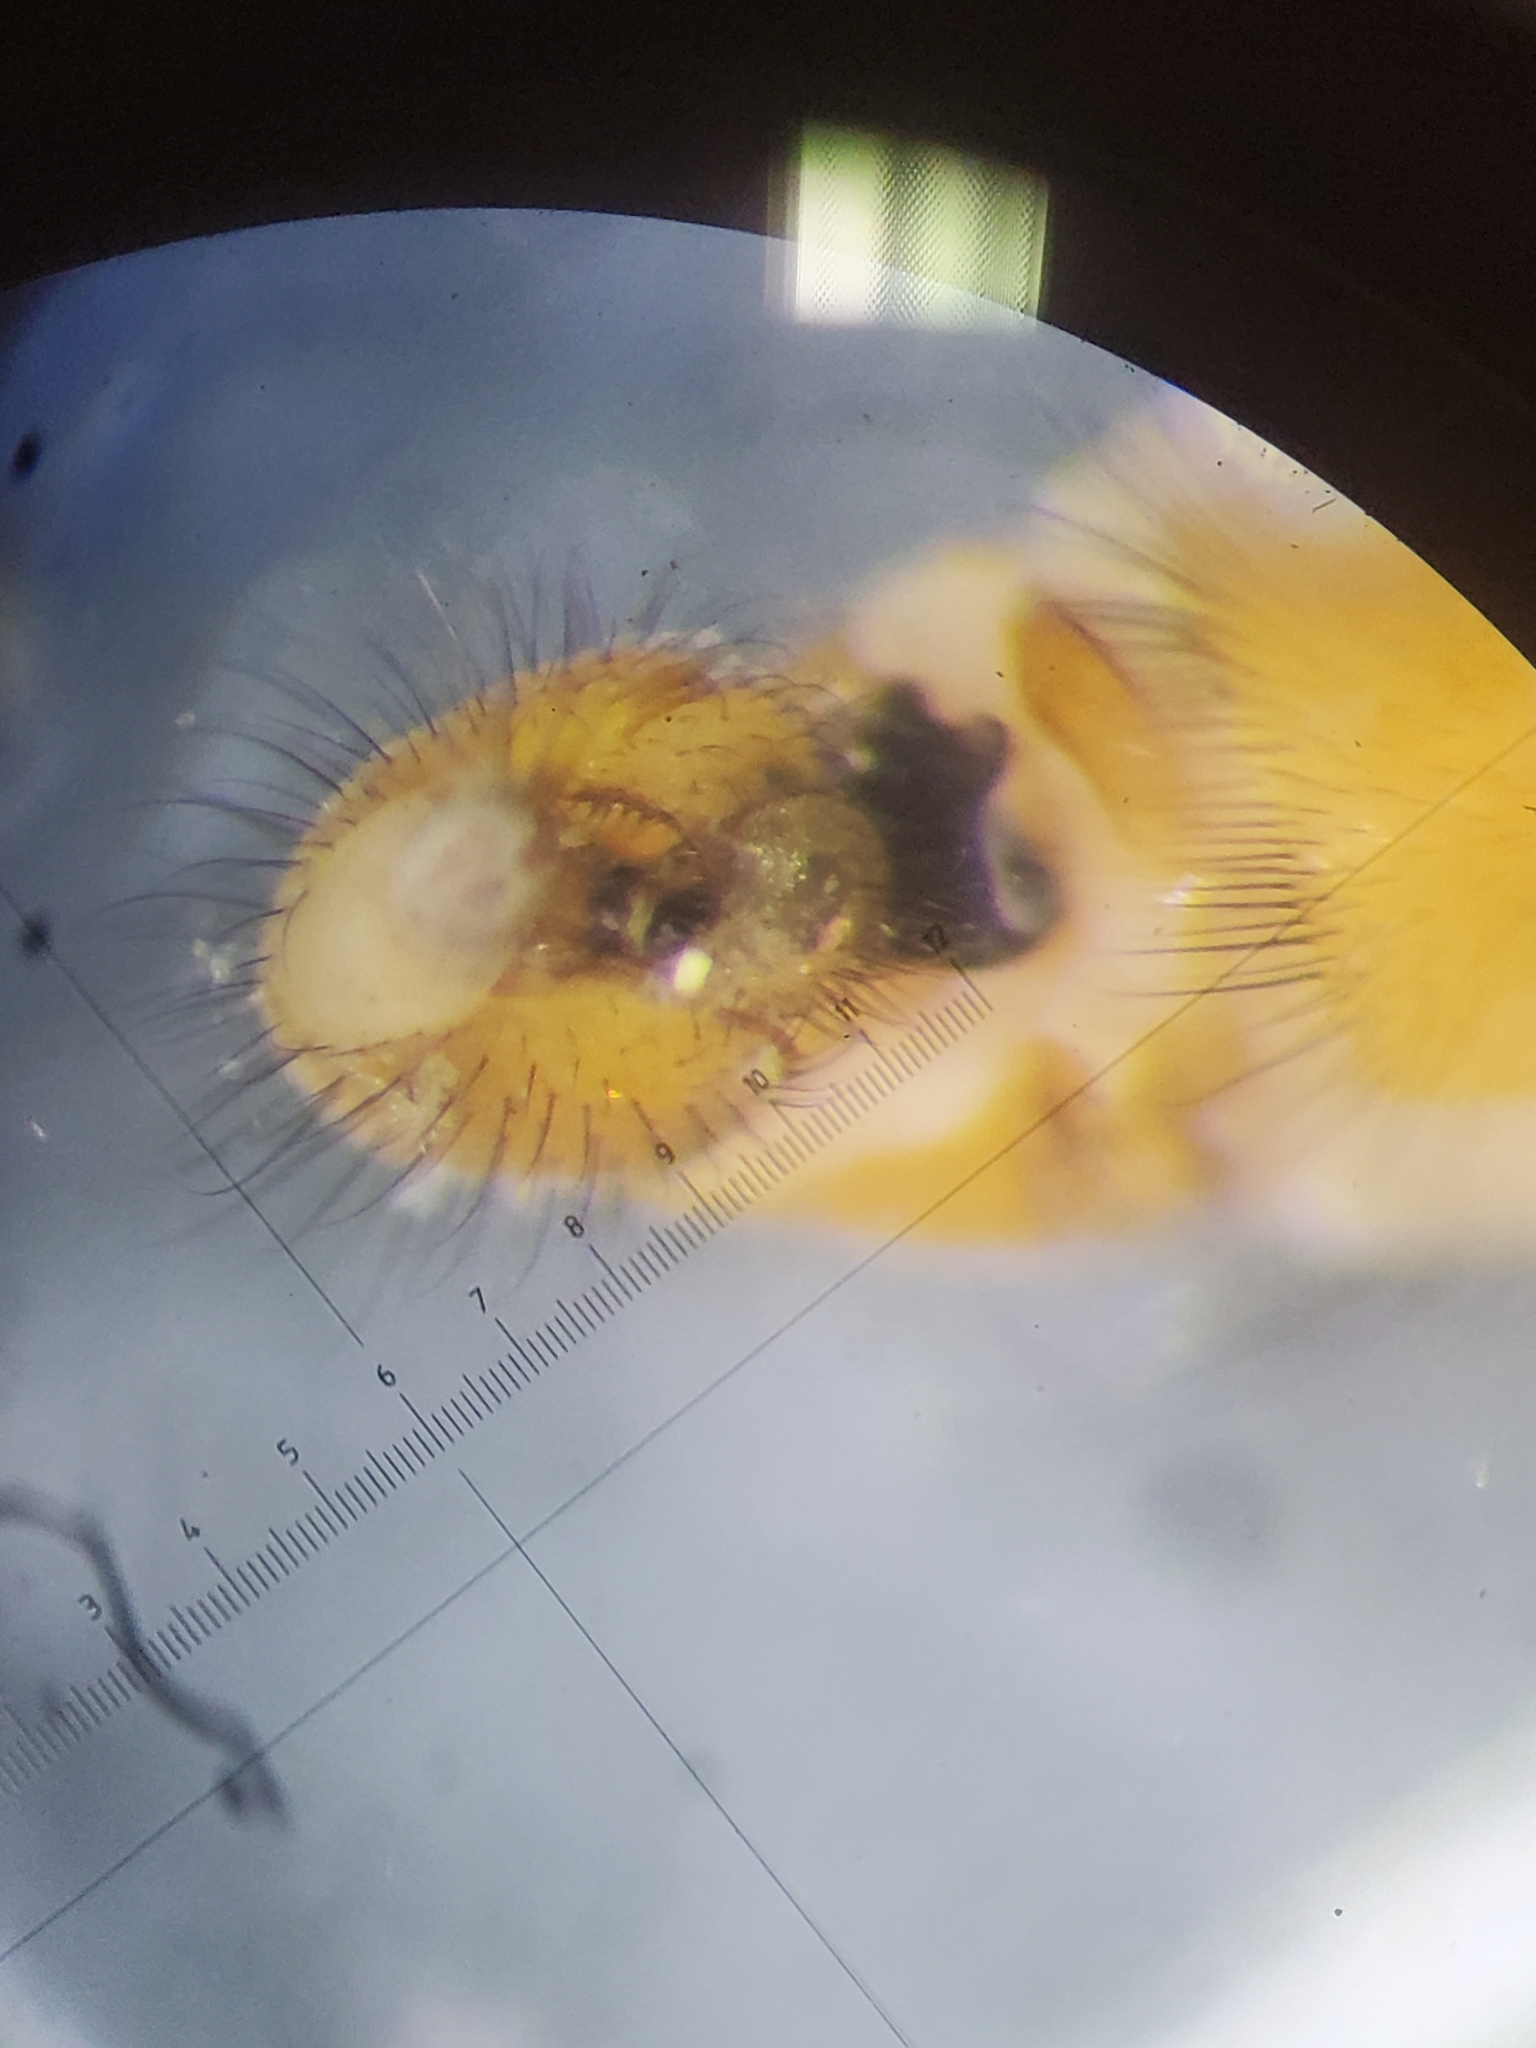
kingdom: Animalia
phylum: Arthropoda
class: Insecta
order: Diptera
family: Heleomyzidae
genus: Suillia
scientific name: Suillia nemorum
